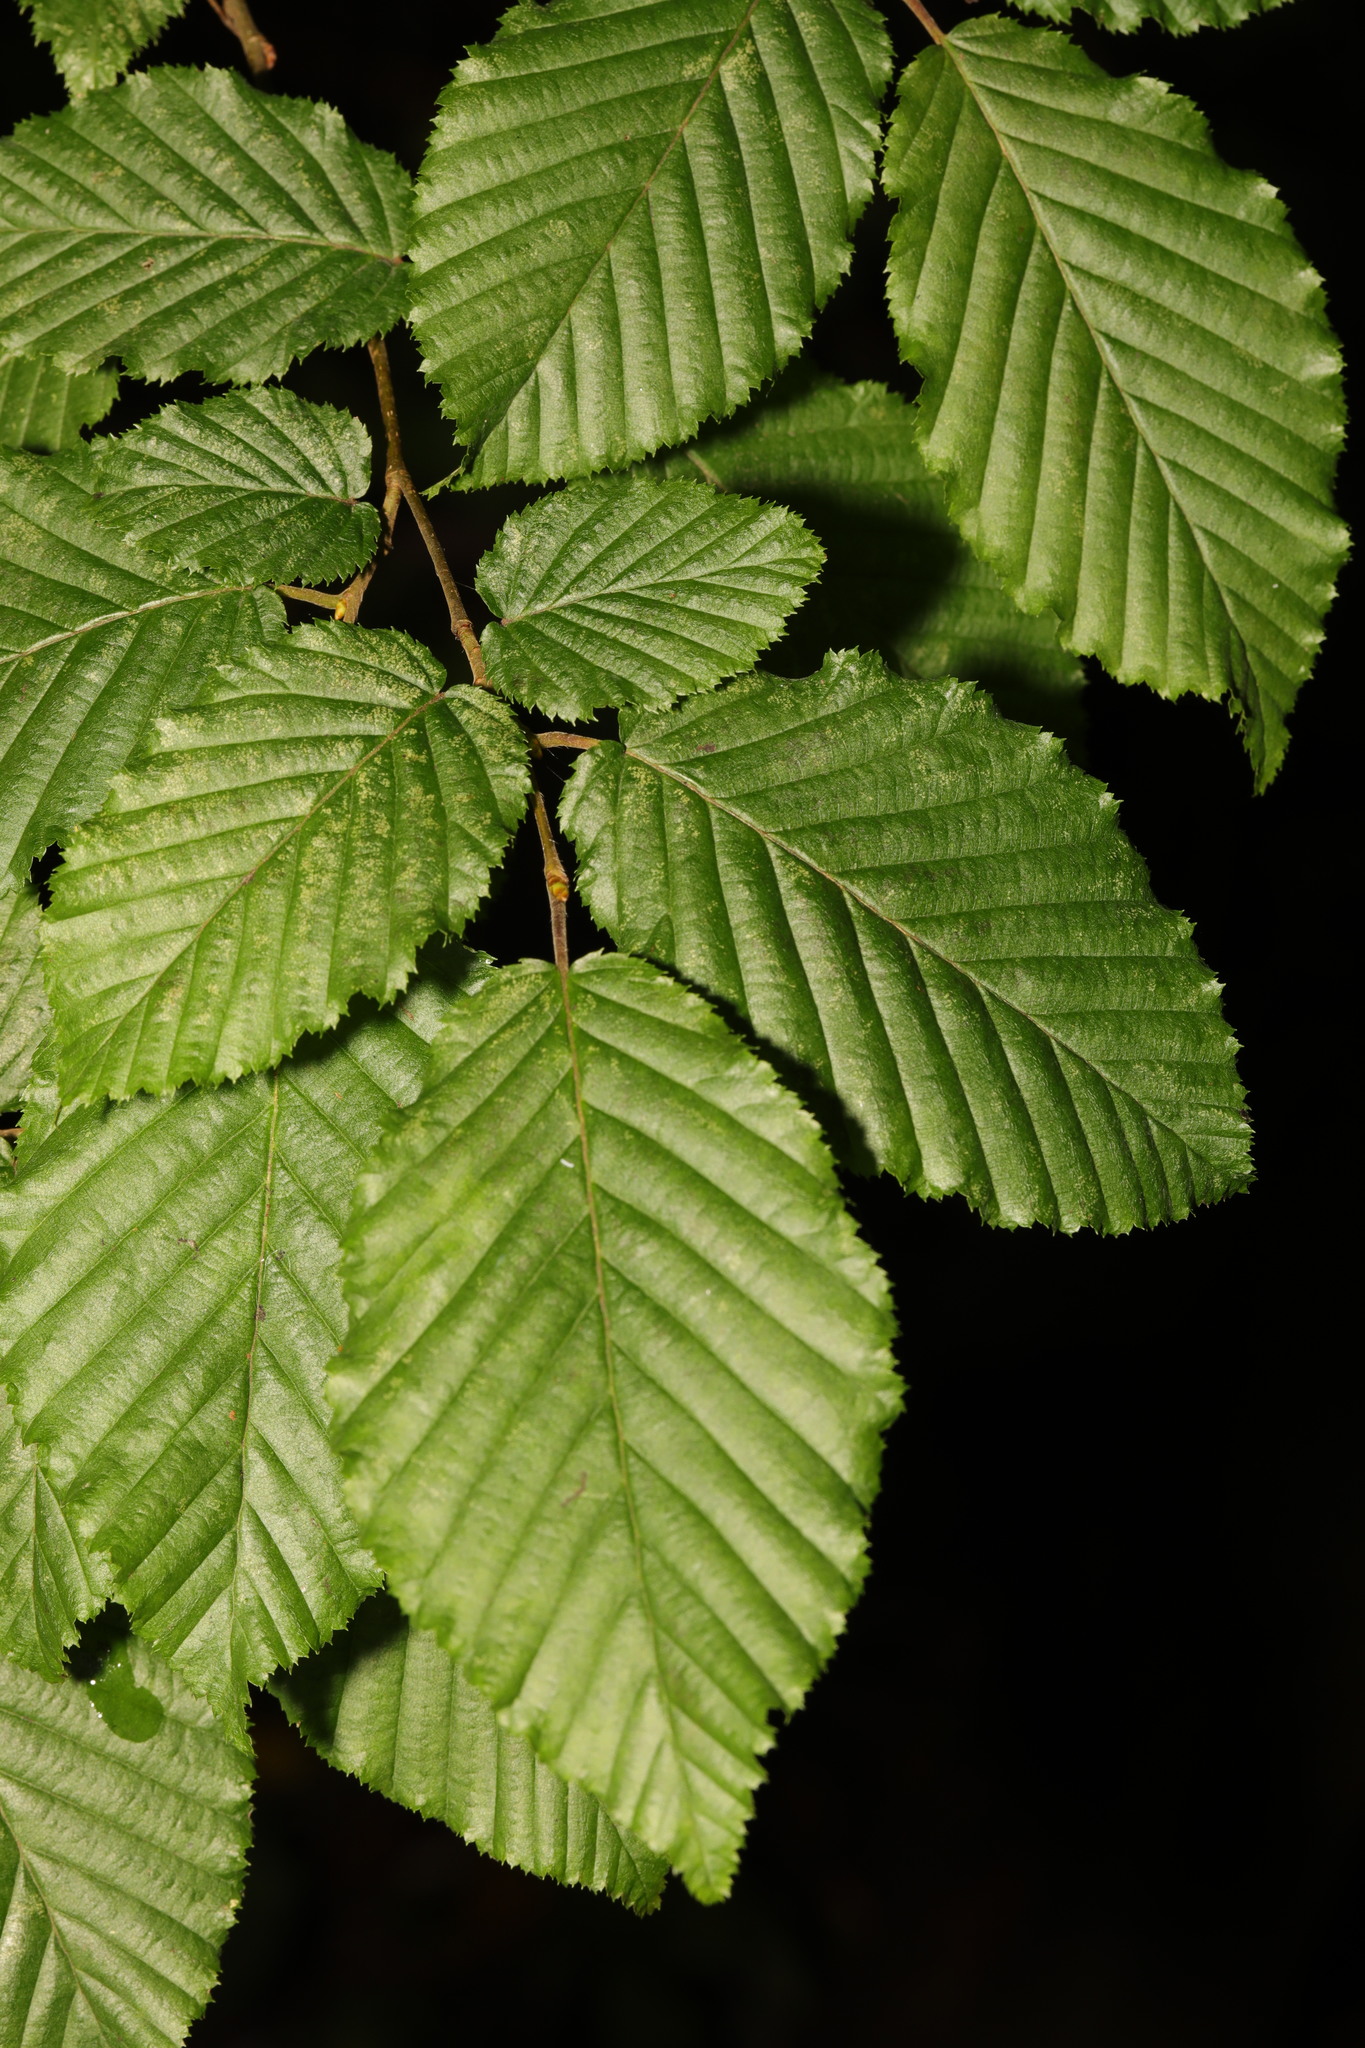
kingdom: Plantae
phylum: Tracheophyta
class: Magnoliopsida
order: Fagales
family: Betulaceae
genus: Carpinus
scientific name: Carpinus betulus
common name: Hornbeam
